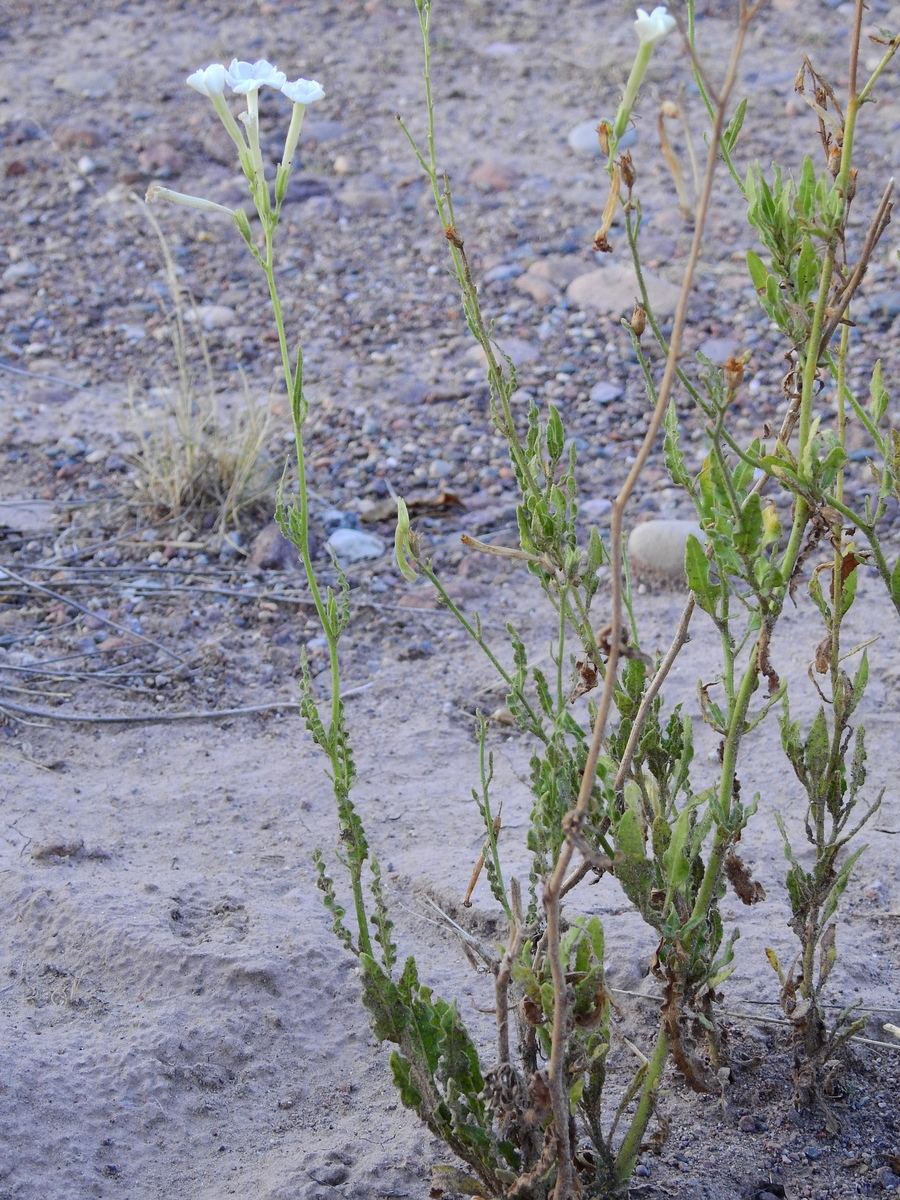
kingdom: Plantae
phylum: Tracheophyta
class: Magnoliopsida
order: Solanales
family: Solanaceae
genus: Nicotiana
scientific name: Nicotiana noctiflora
